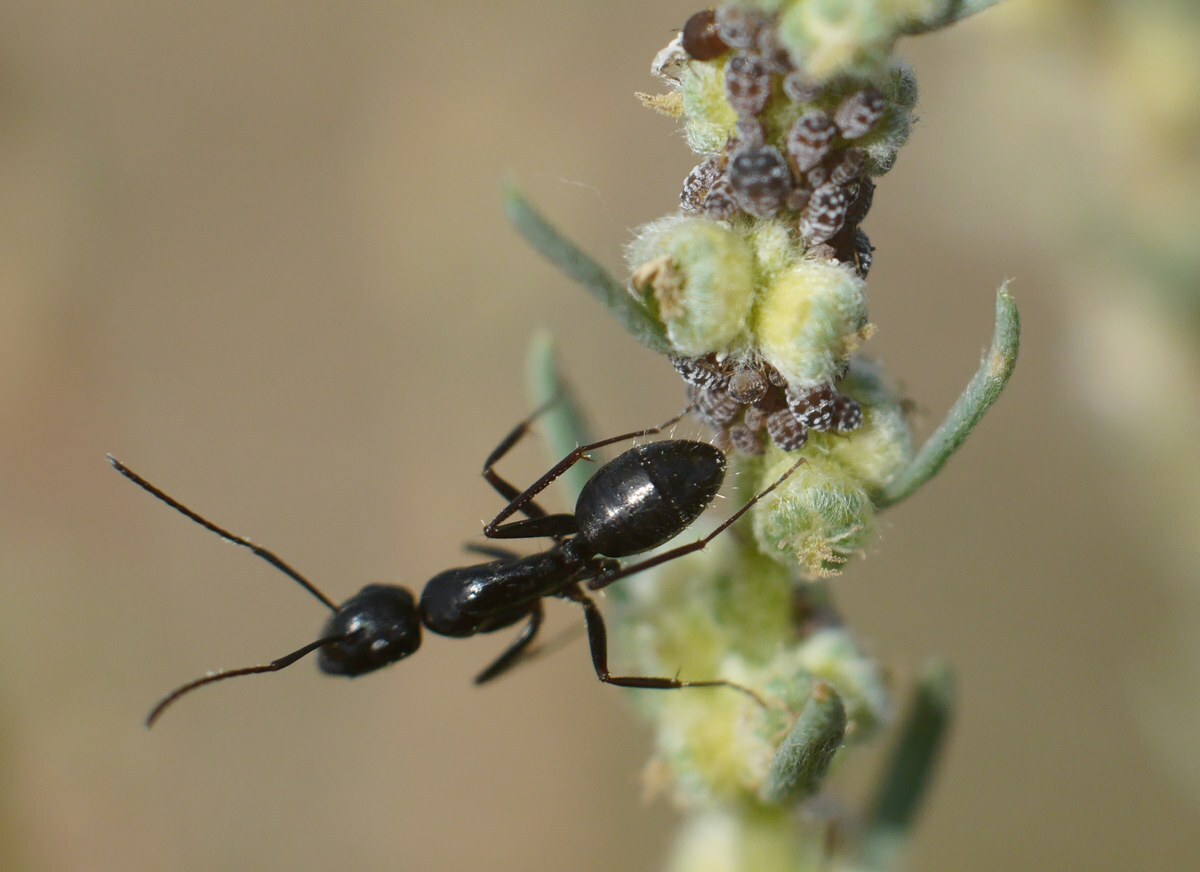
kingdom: Animalia
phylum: Arthropoda
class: Insecta
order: Hymenoptera
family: Formicidae
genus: Camponotus
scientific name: Camponotus aethiops
